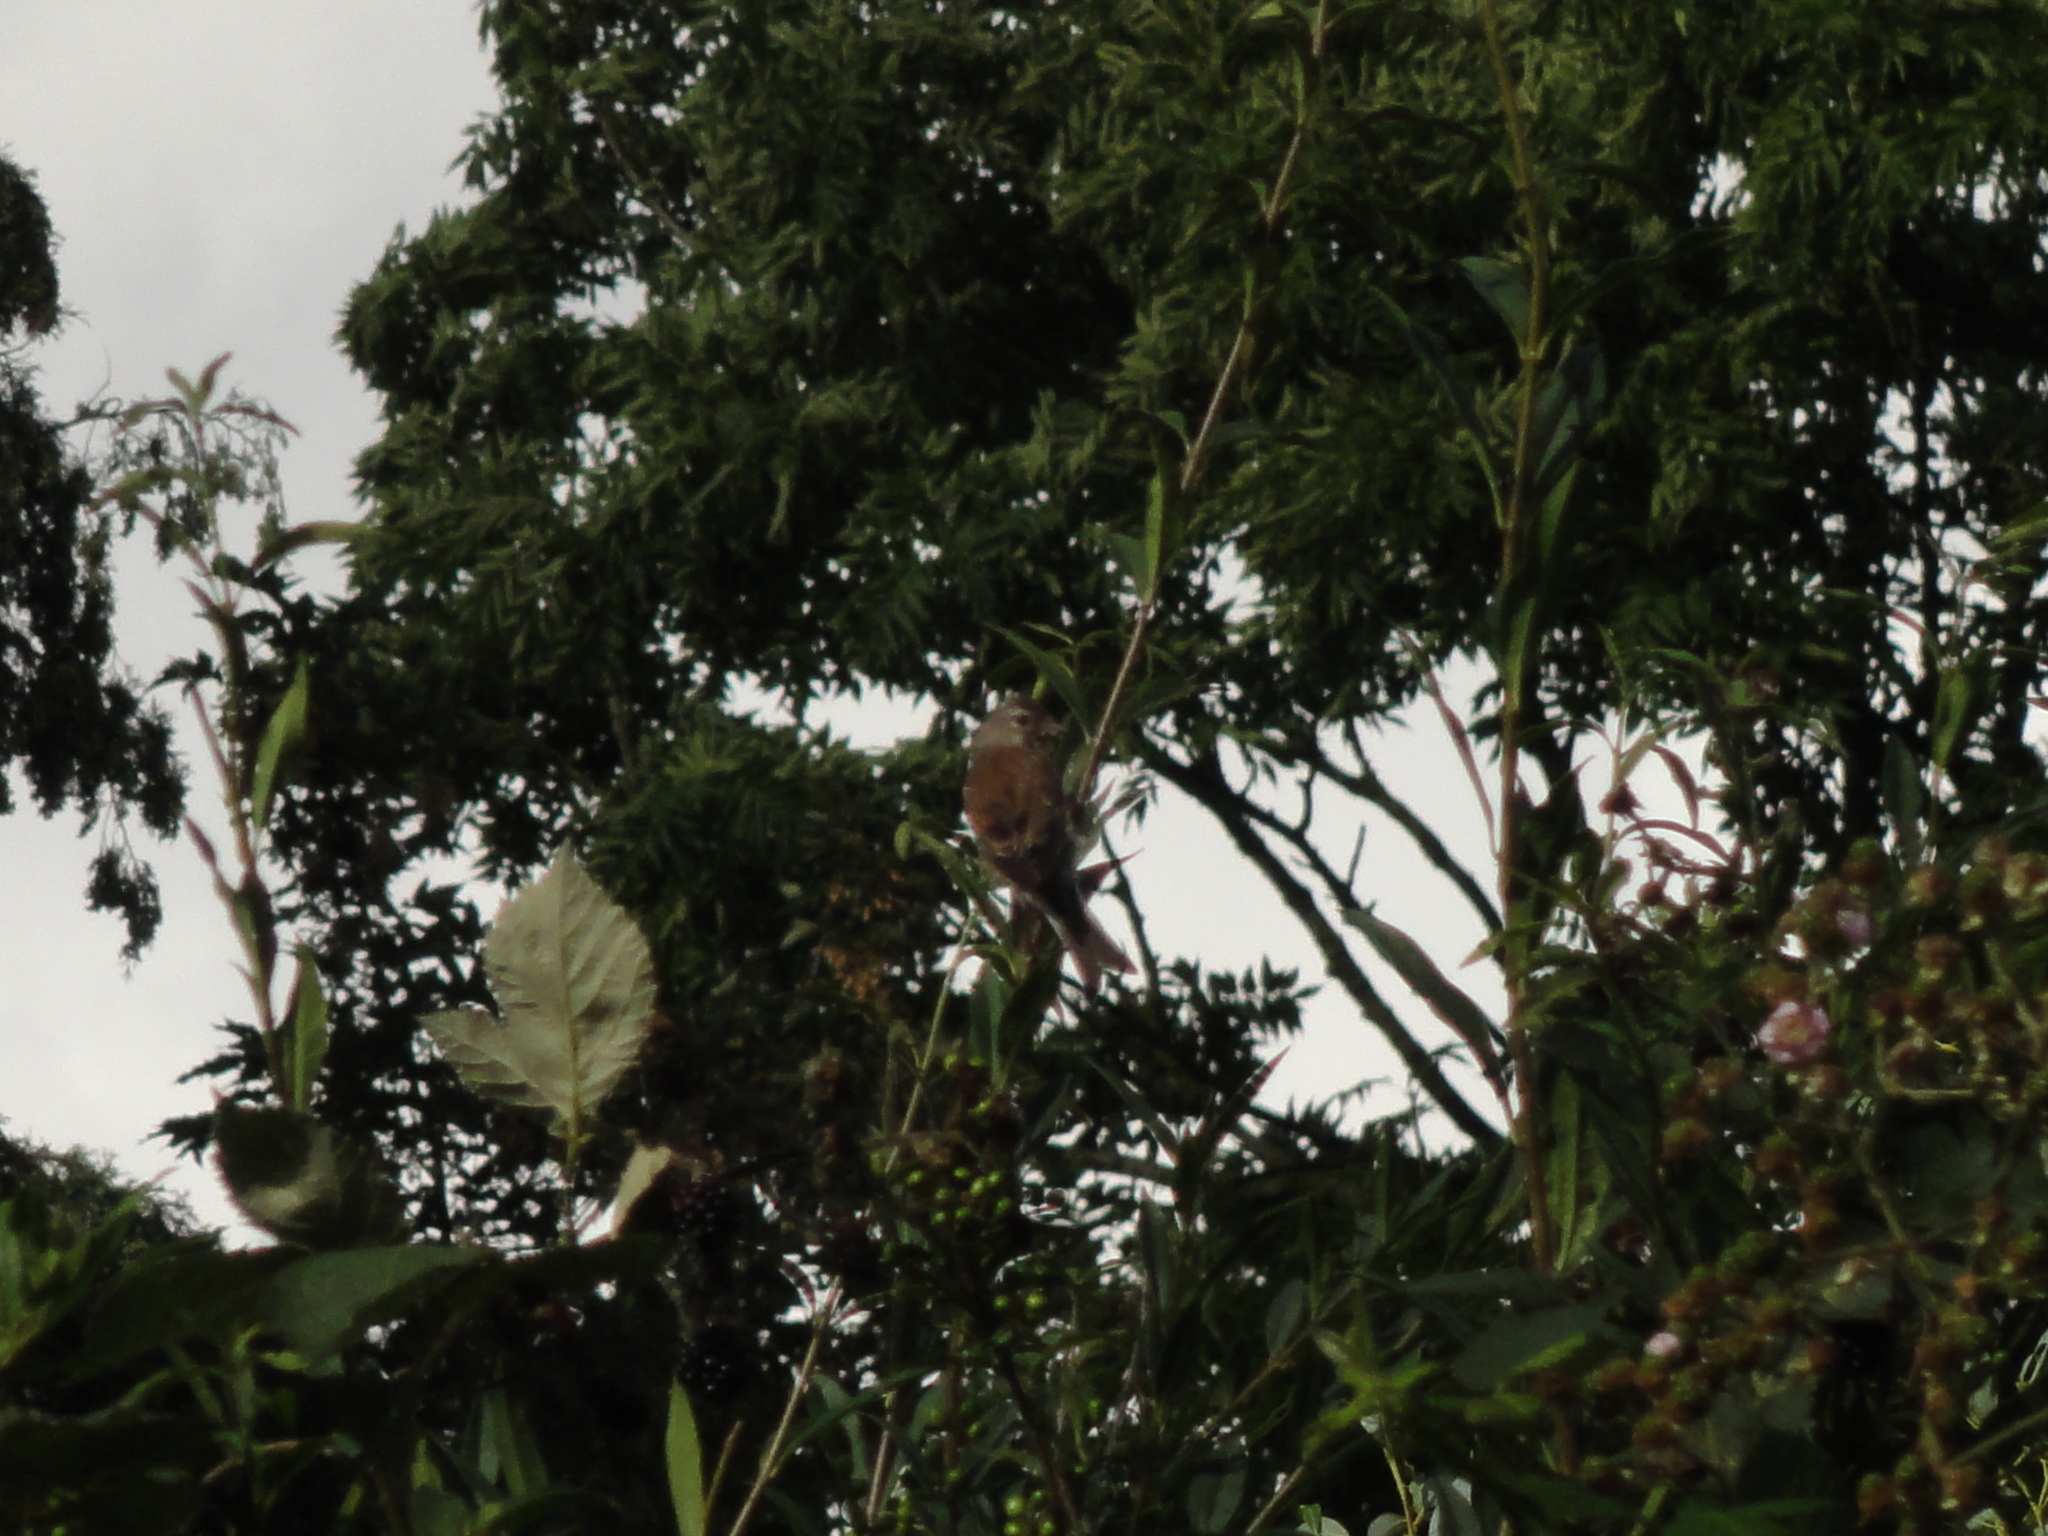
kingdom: Animalia
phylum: Chordata
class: Aves
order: Passeriformes
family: Fringillidae
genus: Linaria
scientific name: Linaria cannabina
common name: Common linnet
